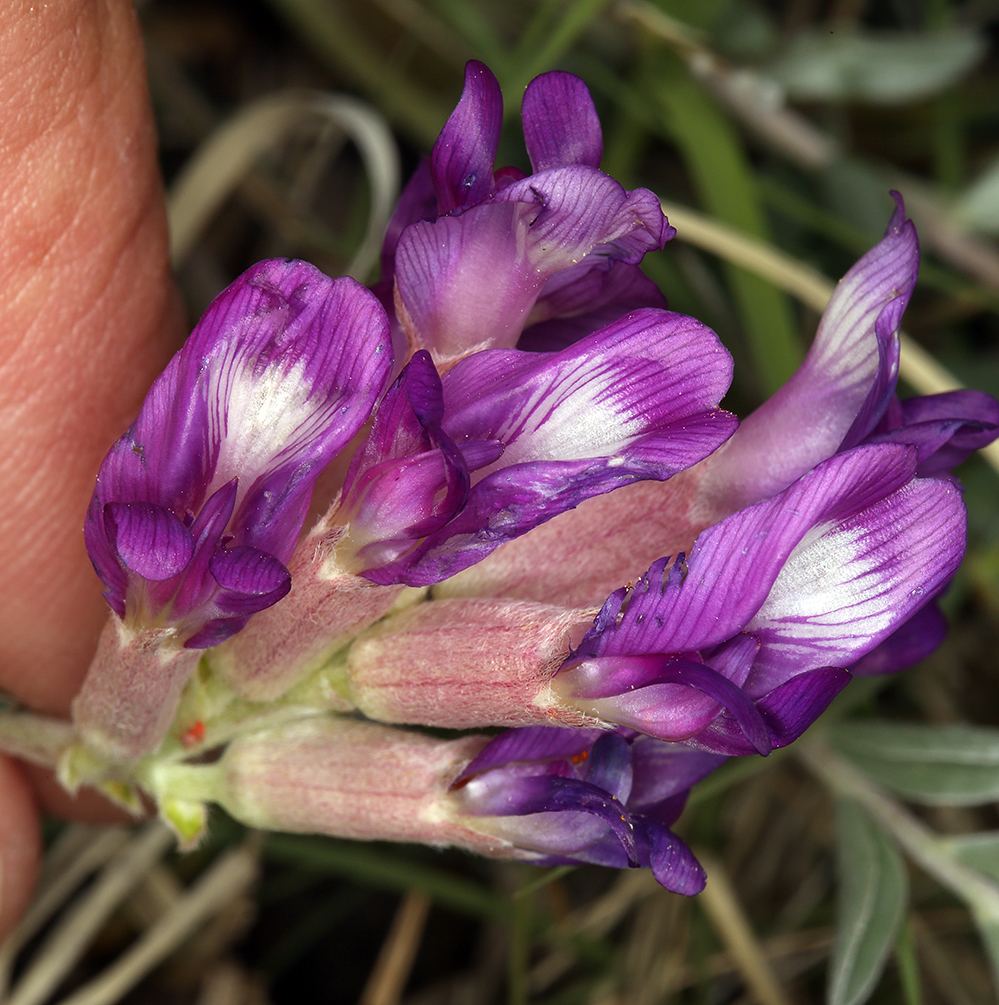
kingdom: Plantae
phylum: Tracheophyta
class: Magnoliopsida
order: Fabales
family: Fabaceae
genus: Astragalus
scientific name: Astragalus argophyllus
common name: Silverleaf milk-vetch
